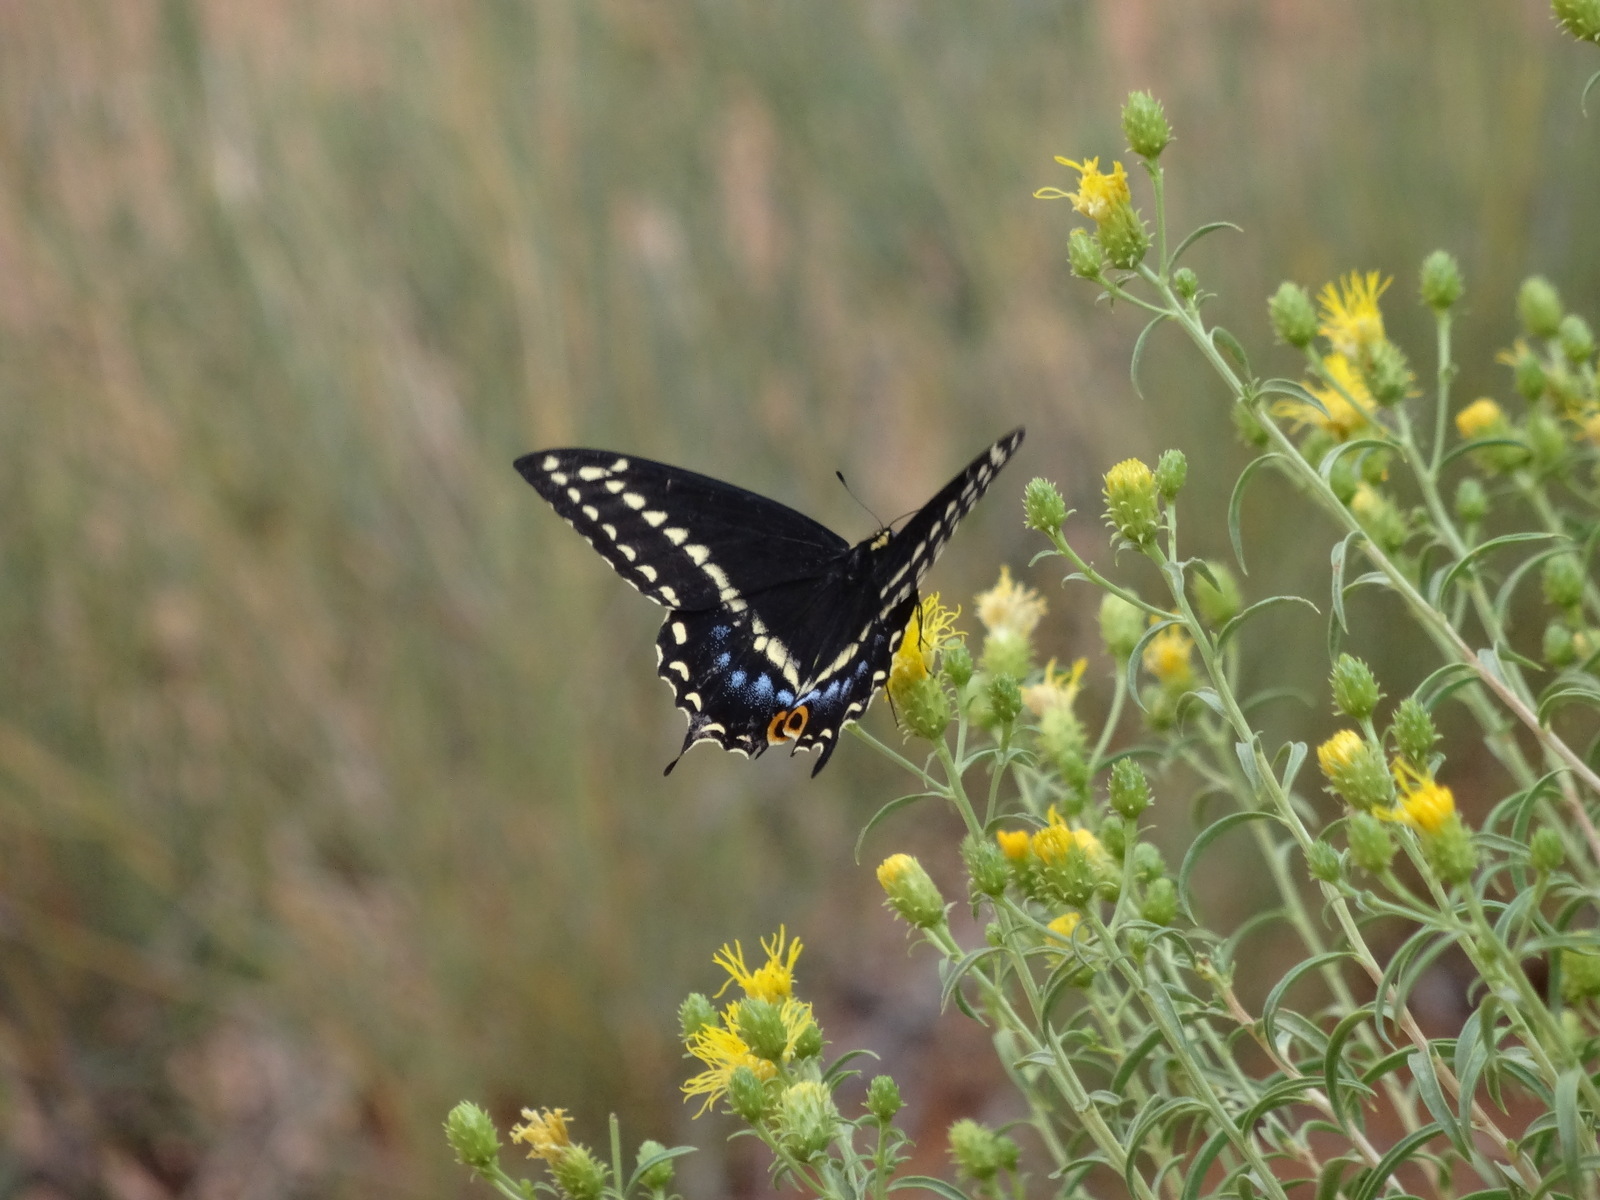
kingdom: Animalia
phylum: Arthropoda
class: Insecta
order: Lepidoptera
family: Papilionidae
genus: Papilio
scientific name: Papilio indra
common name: Cliff swallowtail
